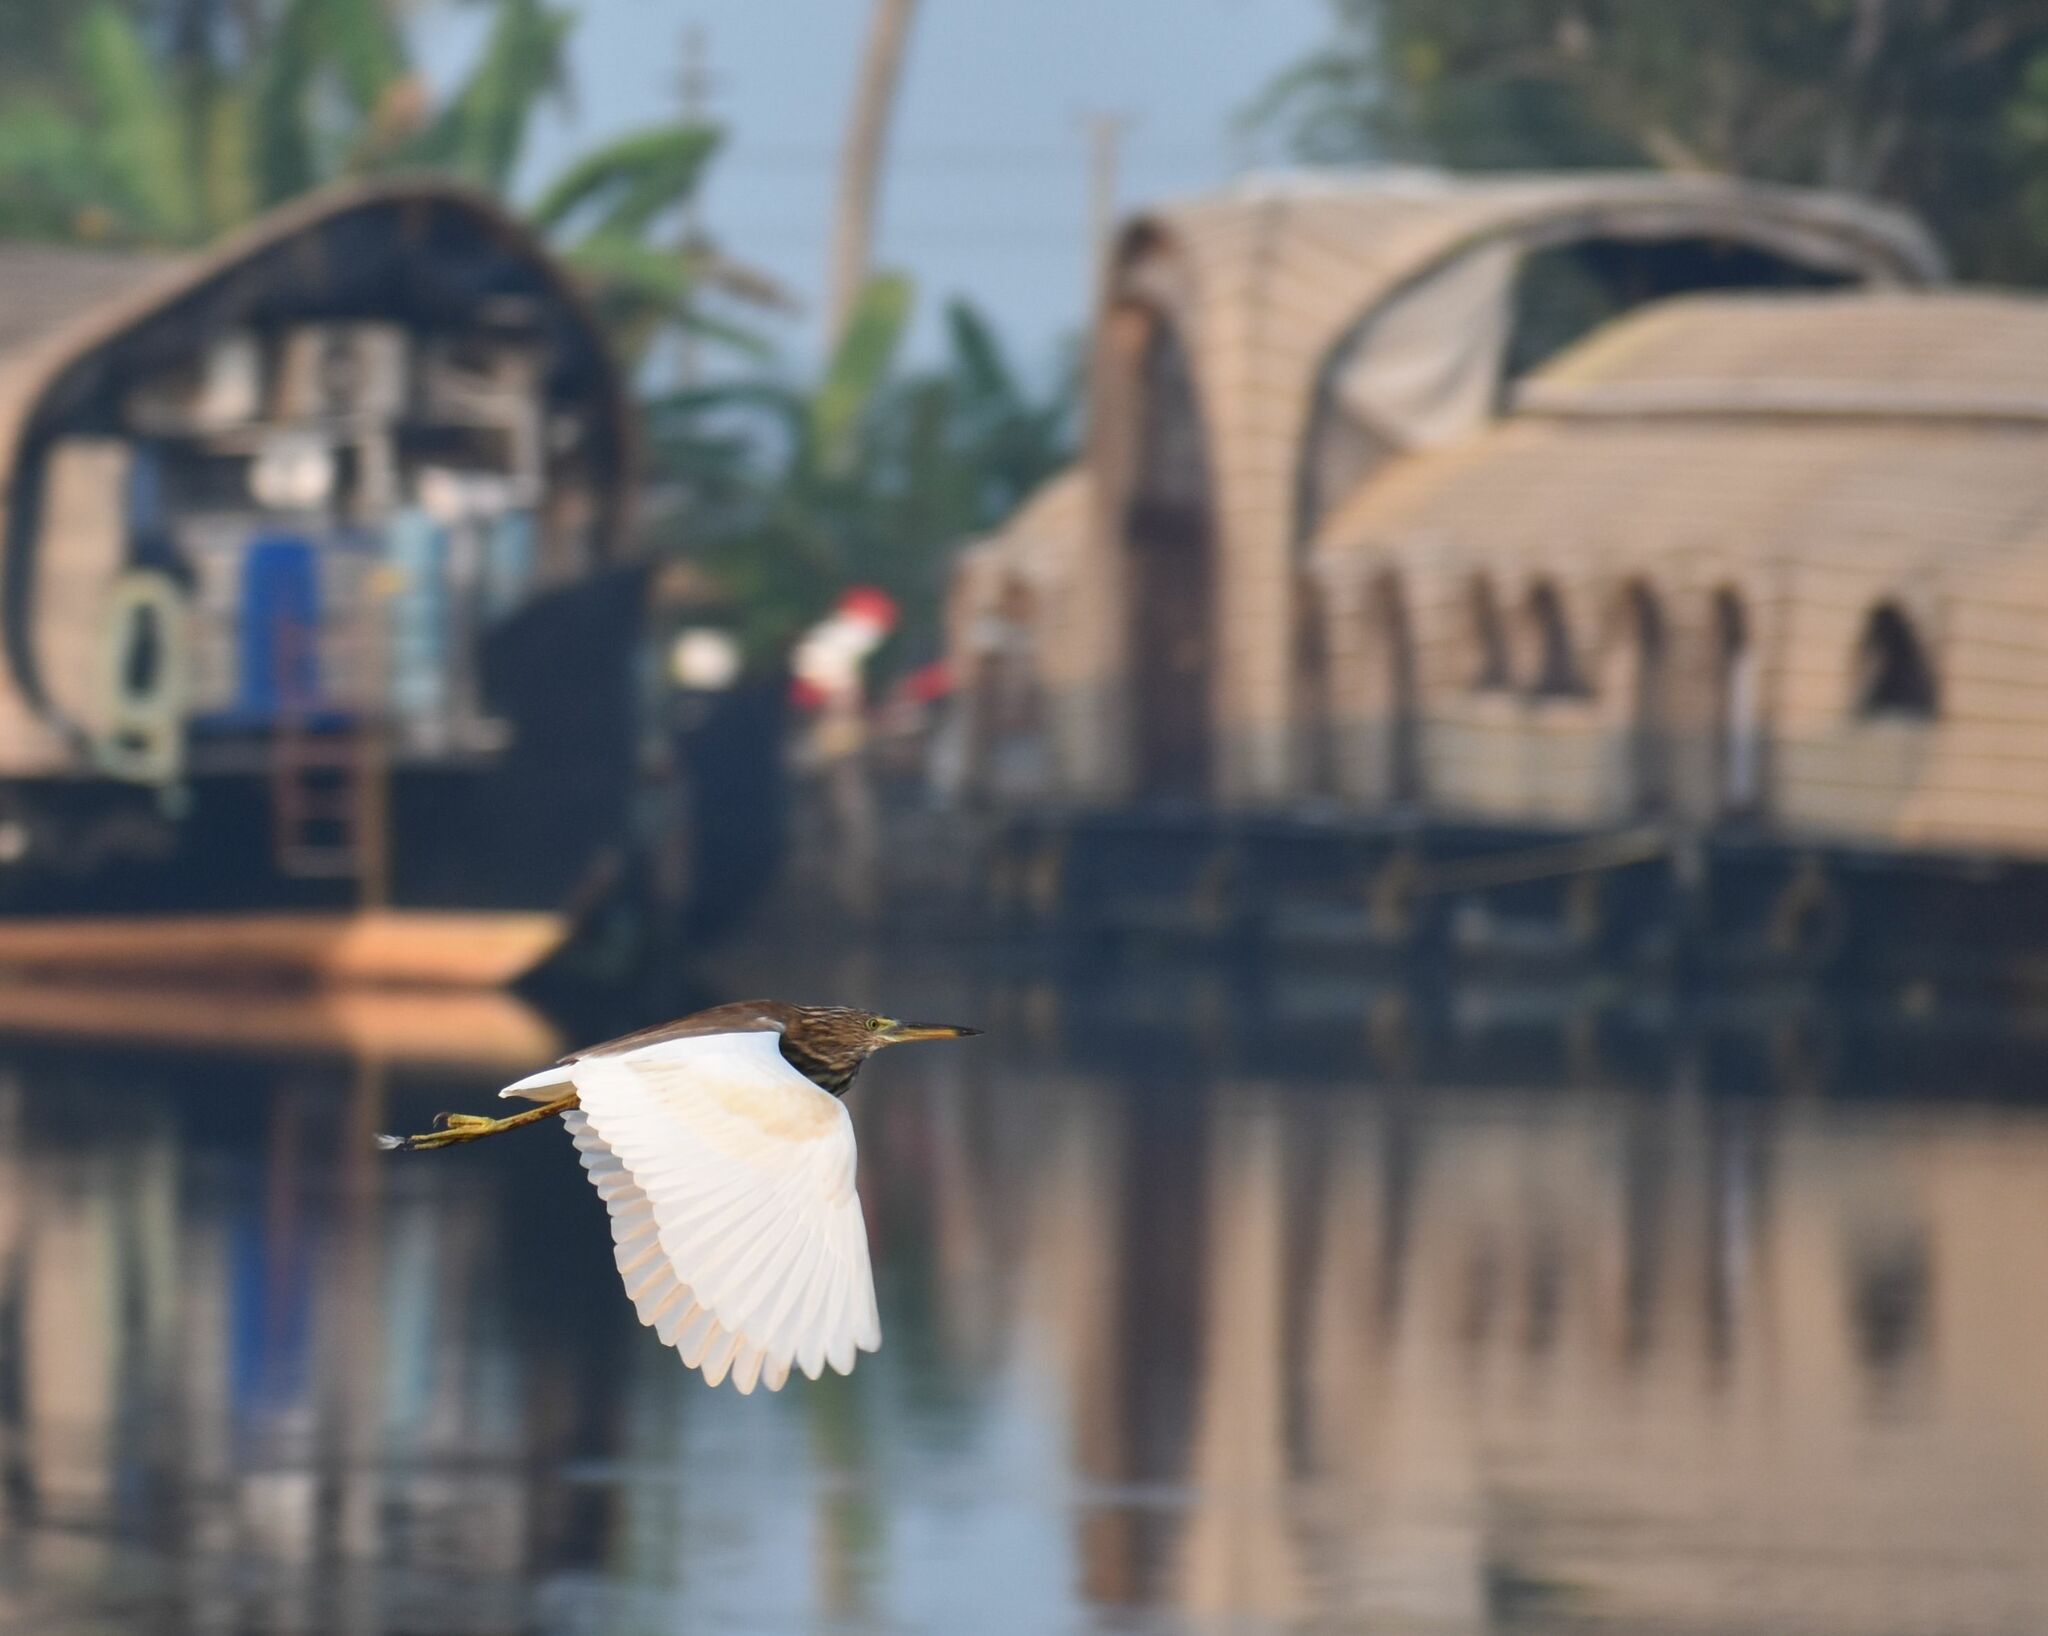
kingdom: Animalia
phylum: Chordata
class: Aves
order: Pelecaniformes
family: Ardeidae
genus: Ardeola
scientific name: Ardeola grayii
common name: Indian pond heron
